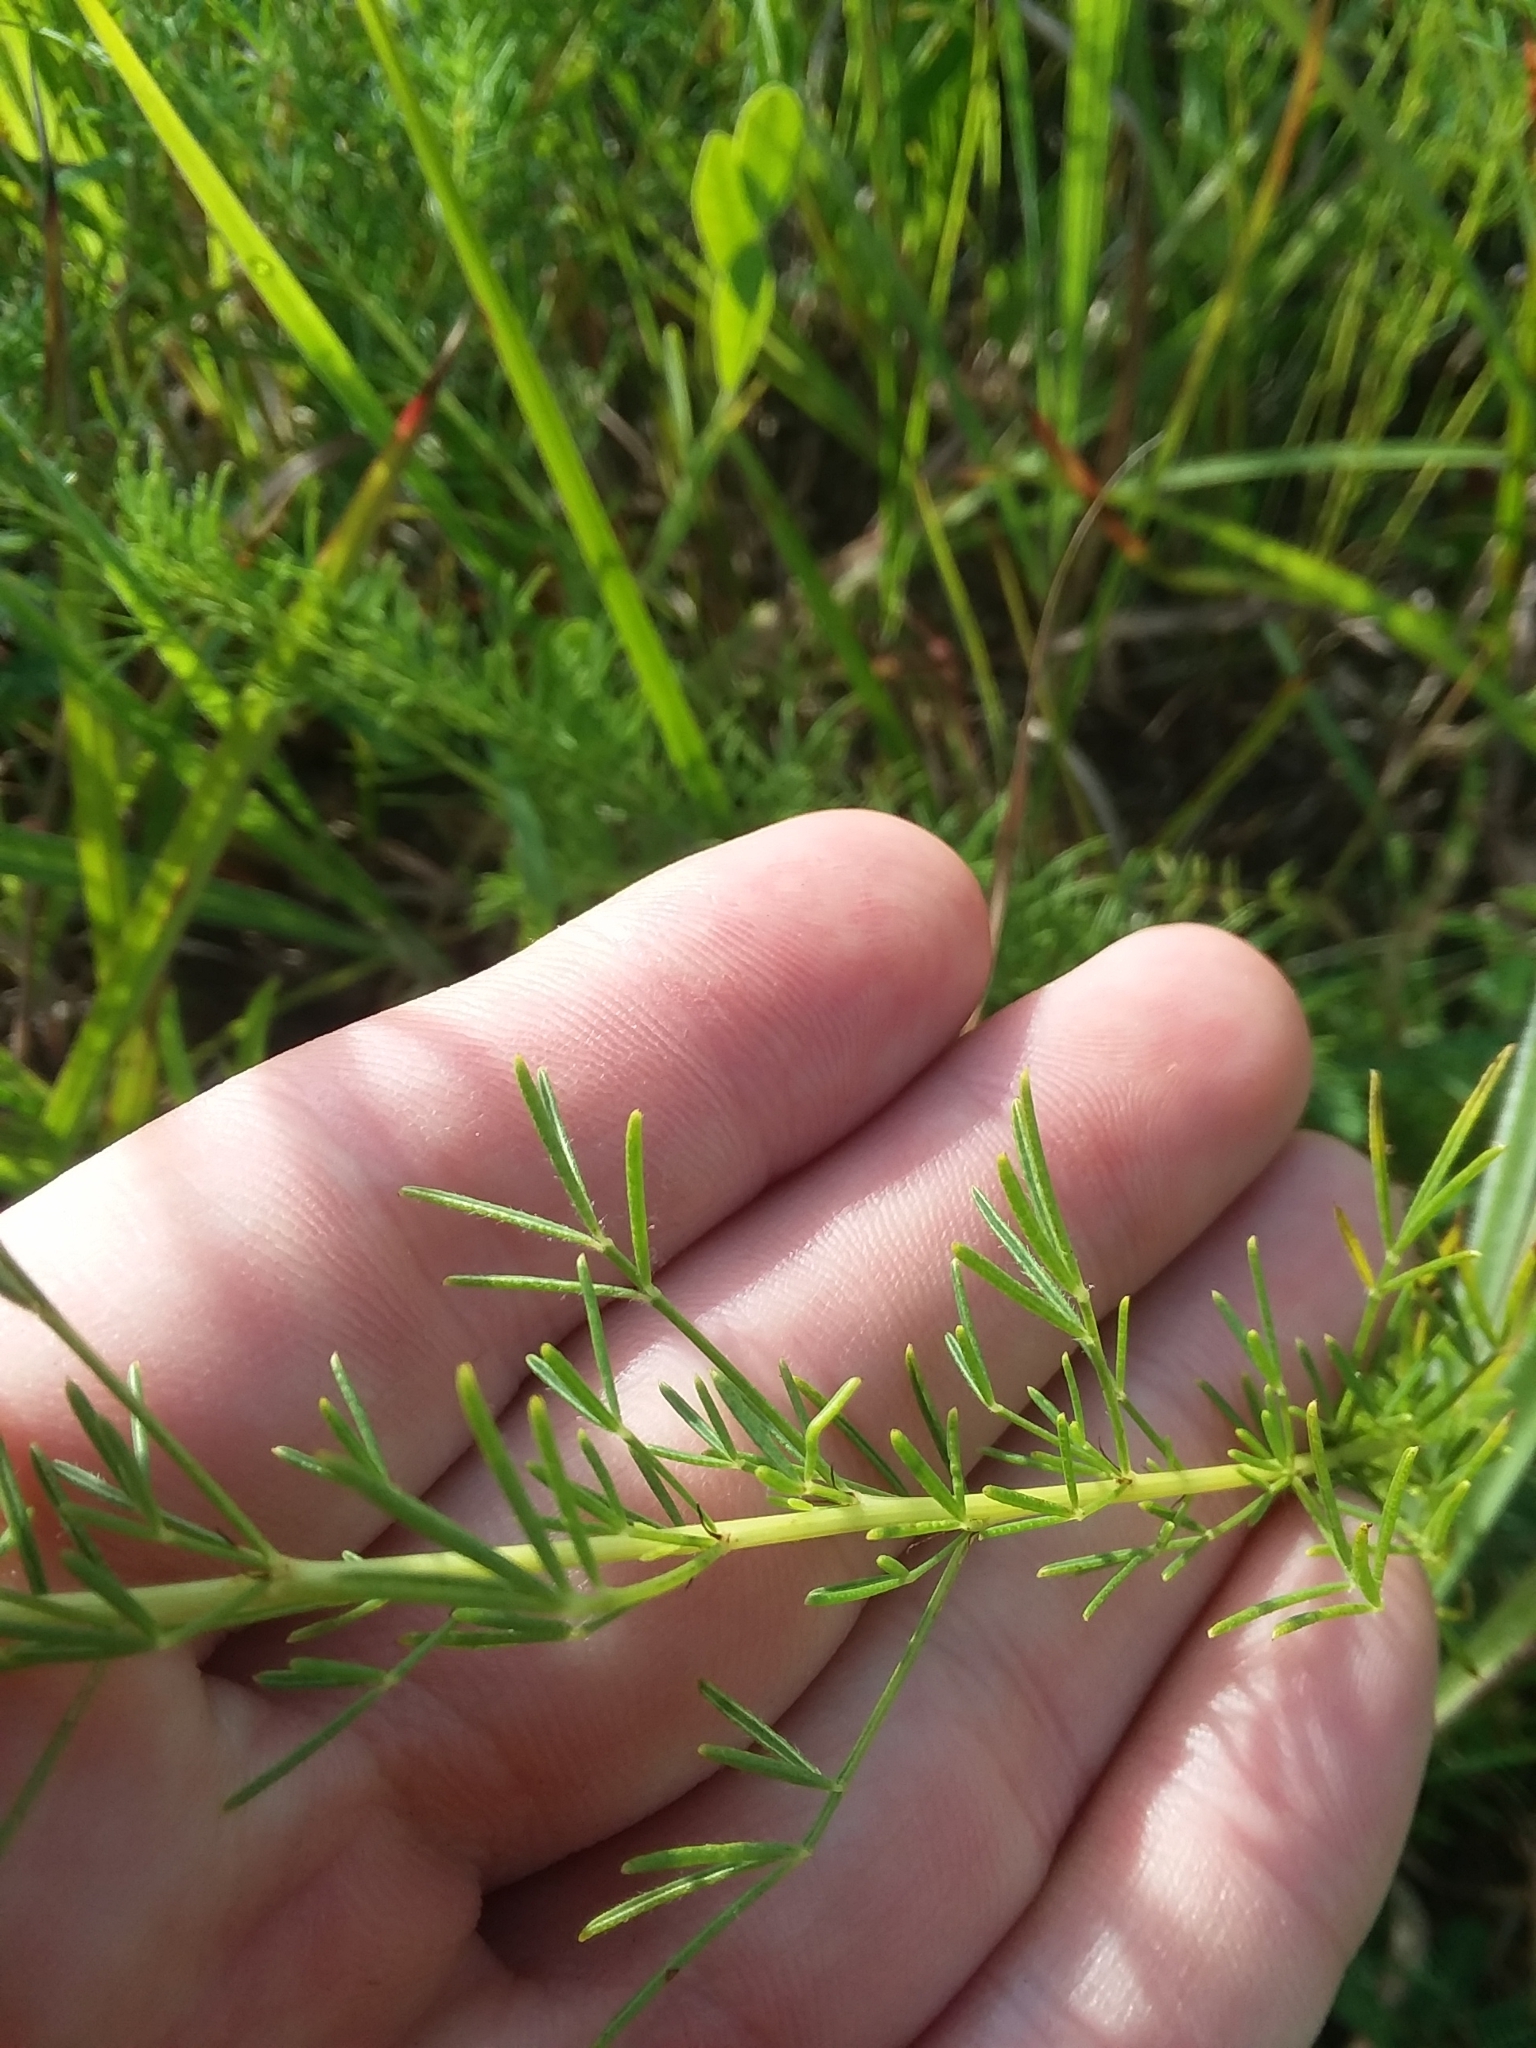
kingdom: Plantae
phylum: Tracheophyta
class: Magnoliopsida
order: Fabales
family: Fabaceae
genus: Dalea
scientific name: Dalea purpurea
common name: Purple prairie-clover
